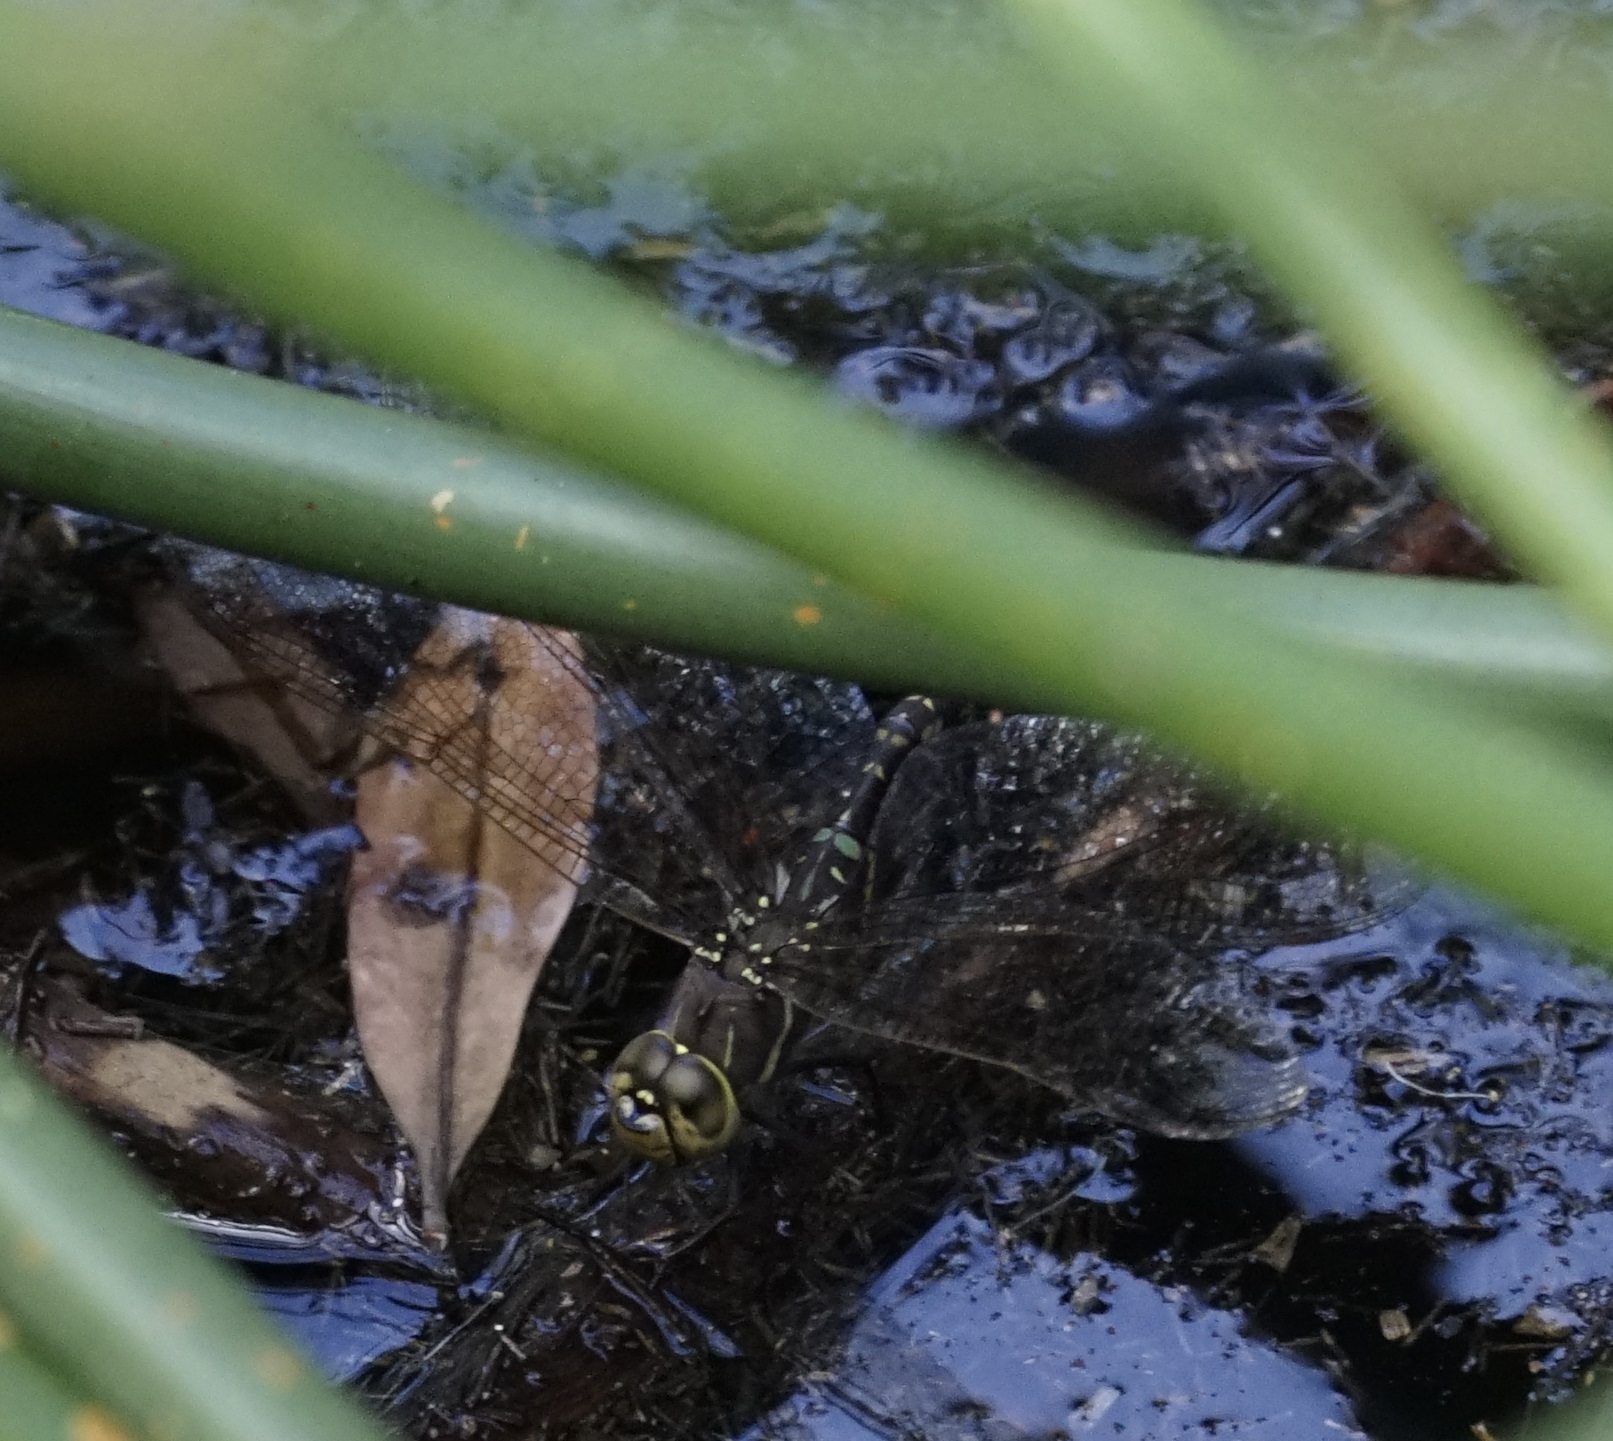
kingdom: Animalia
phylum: Arthropoda
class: Insecta
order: Odonata
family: Aeshnidae
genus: Aeshna
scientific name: Aeshna brevistyla
